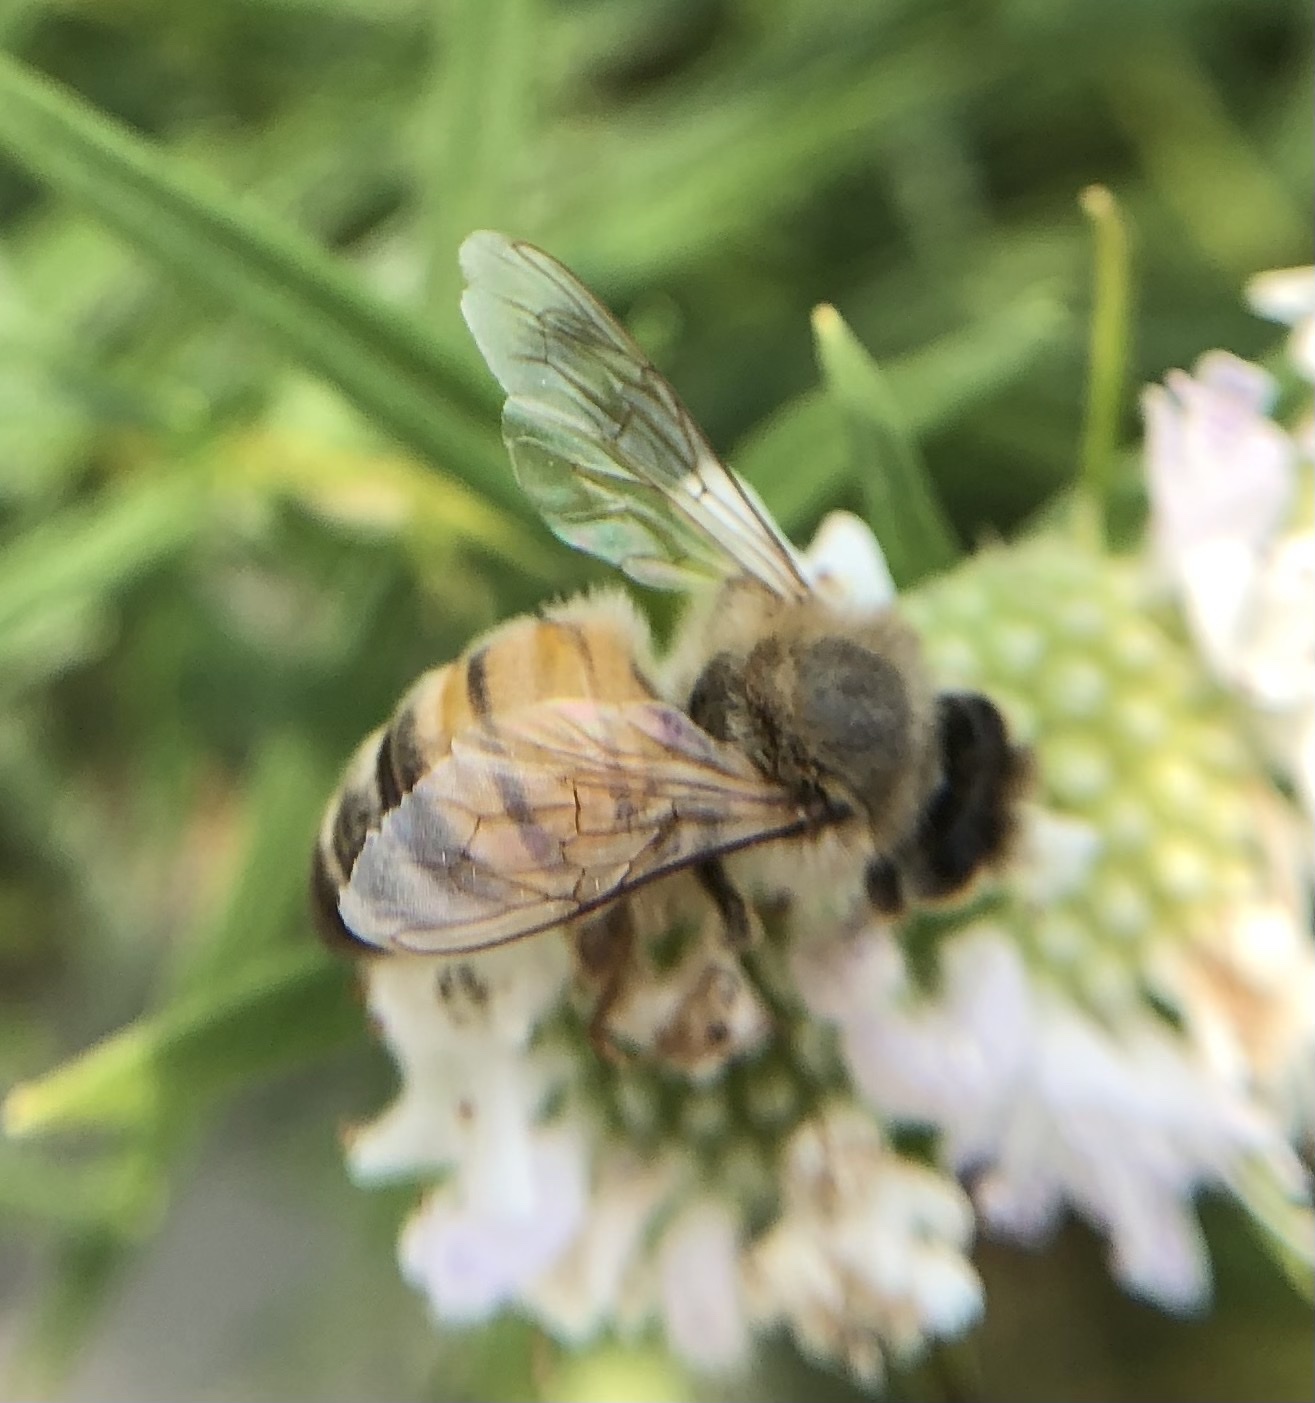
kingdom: Animalia
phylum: Arthropoda
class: Insecta
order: Hymenoptera
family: Apidae
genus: Apis
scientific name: Apis mellifera
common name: Honey bee
